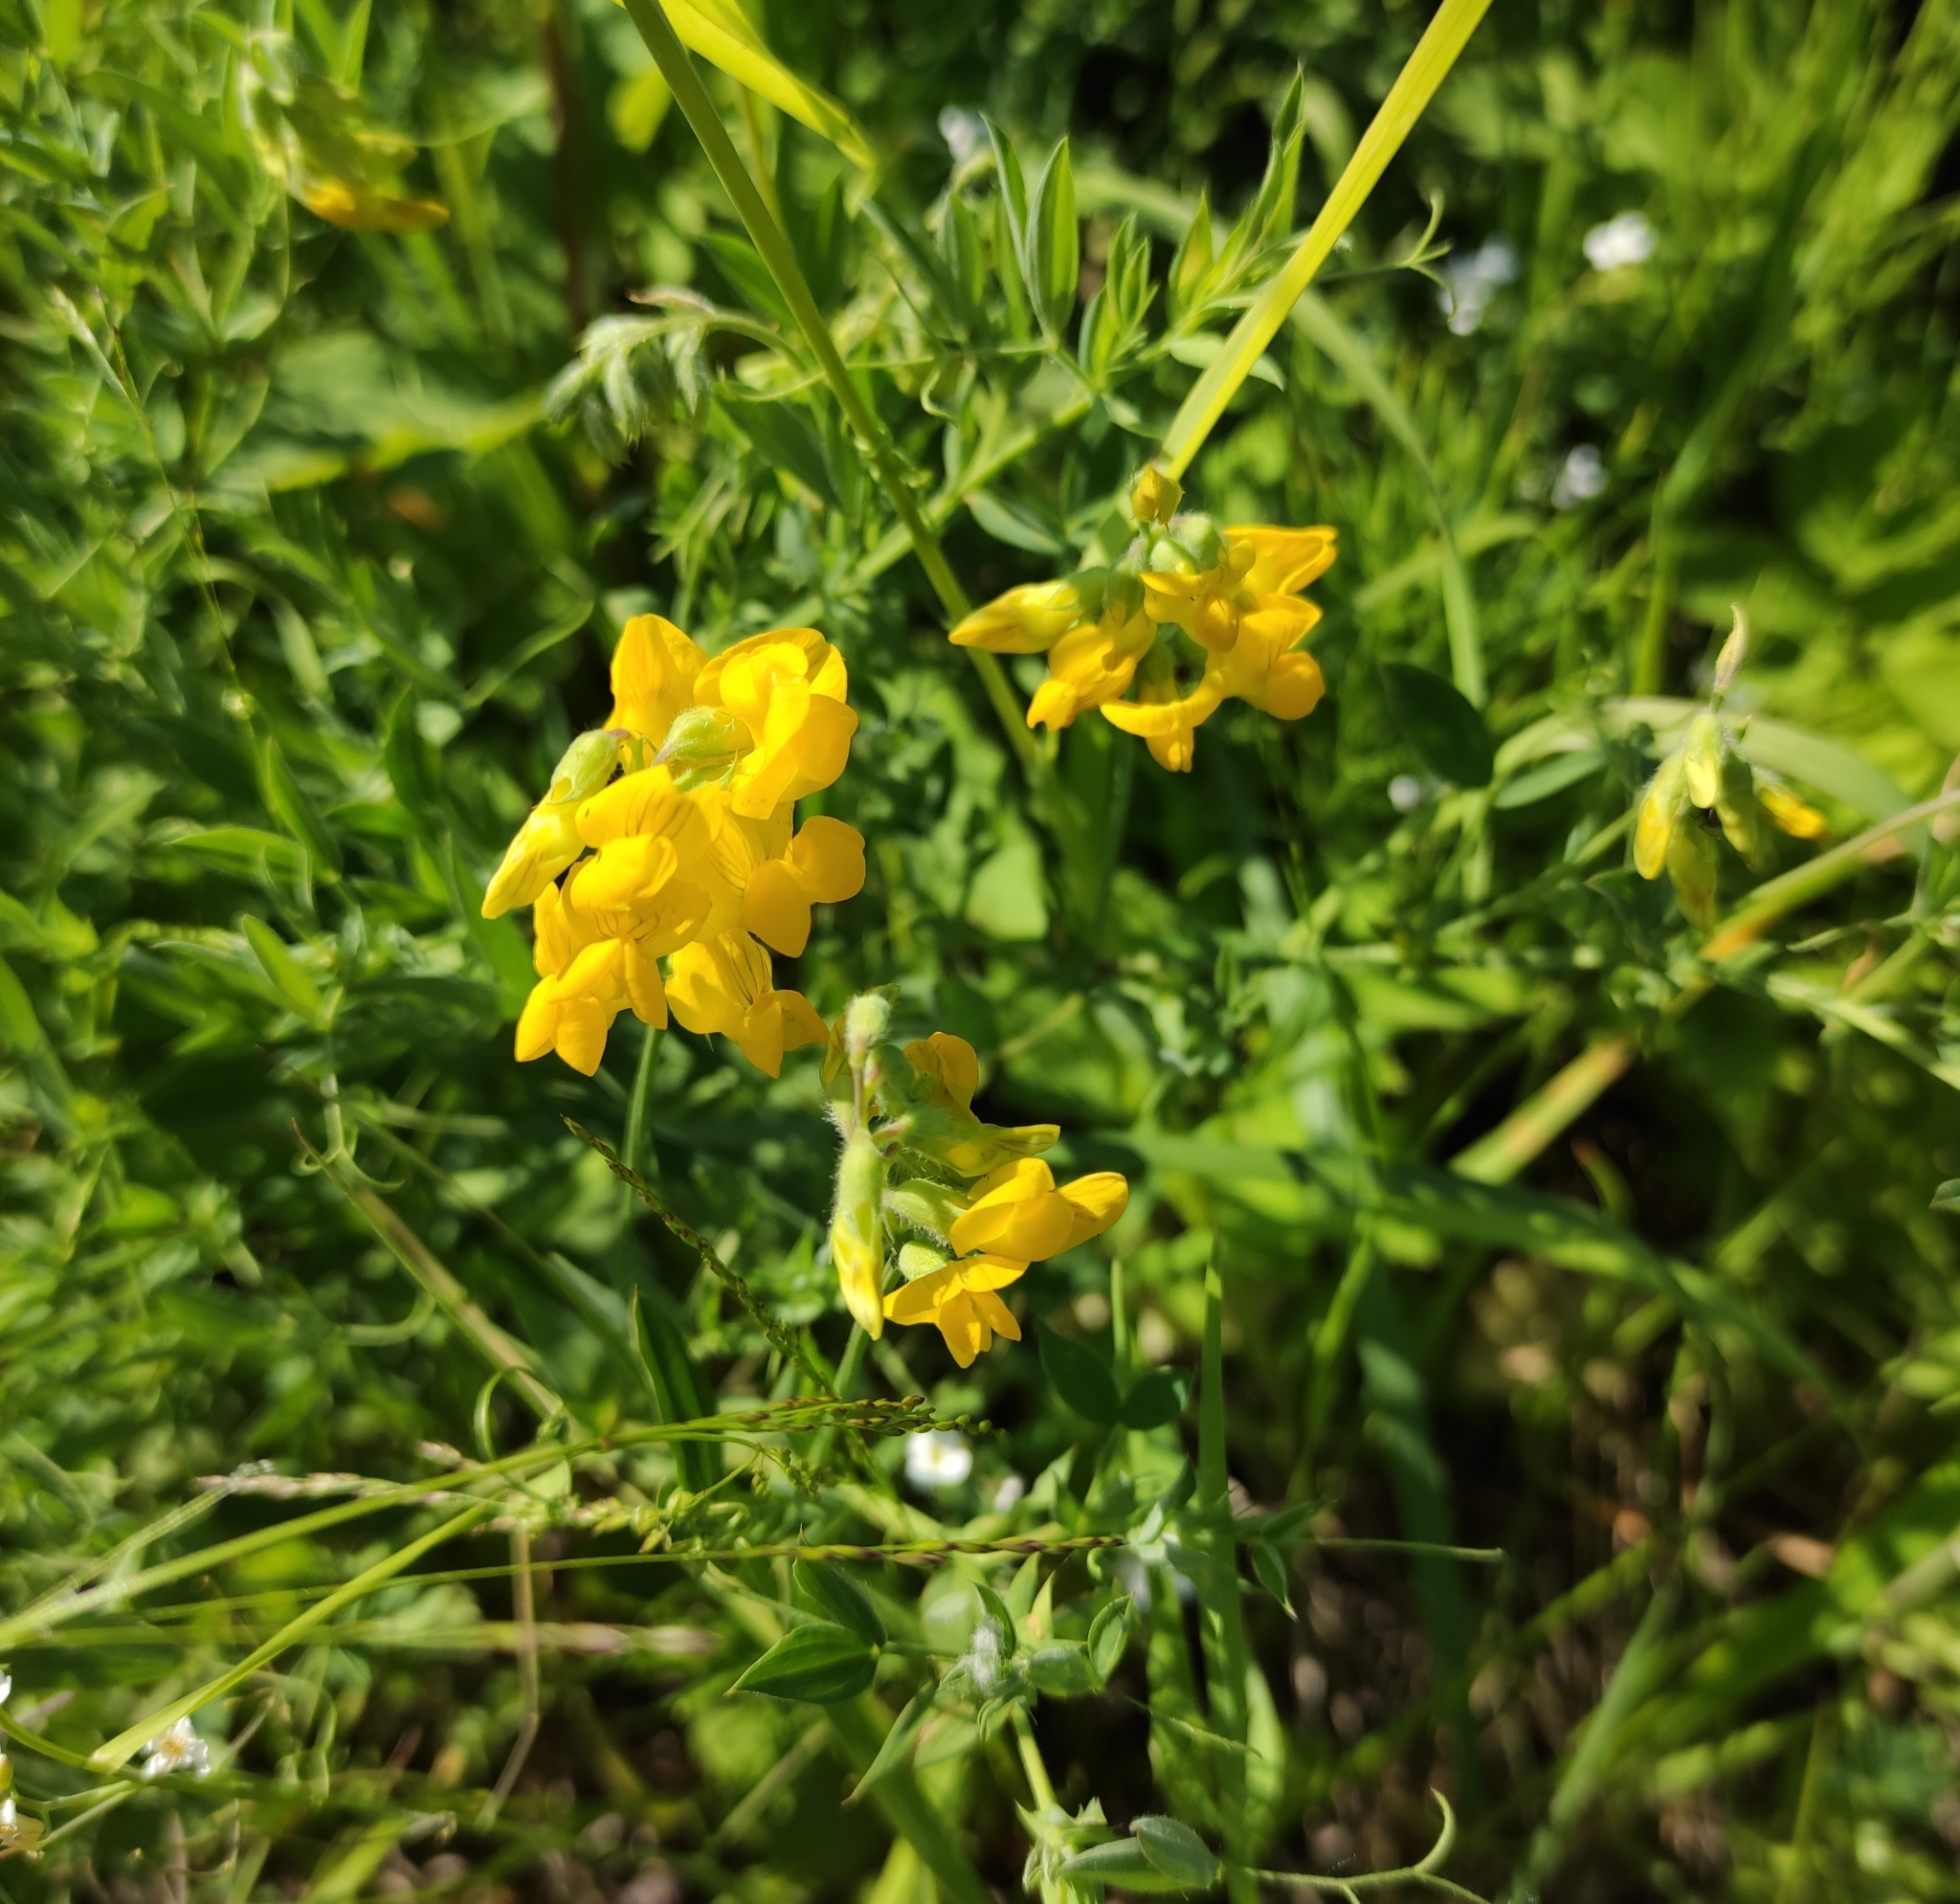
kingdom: Plantae
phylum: Tracheophyta
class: Magnoliopsida
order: Fabales
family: Fabaceae
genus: Lathyrus
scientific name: Lathyrus pratensis
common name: Meadow vetchling
